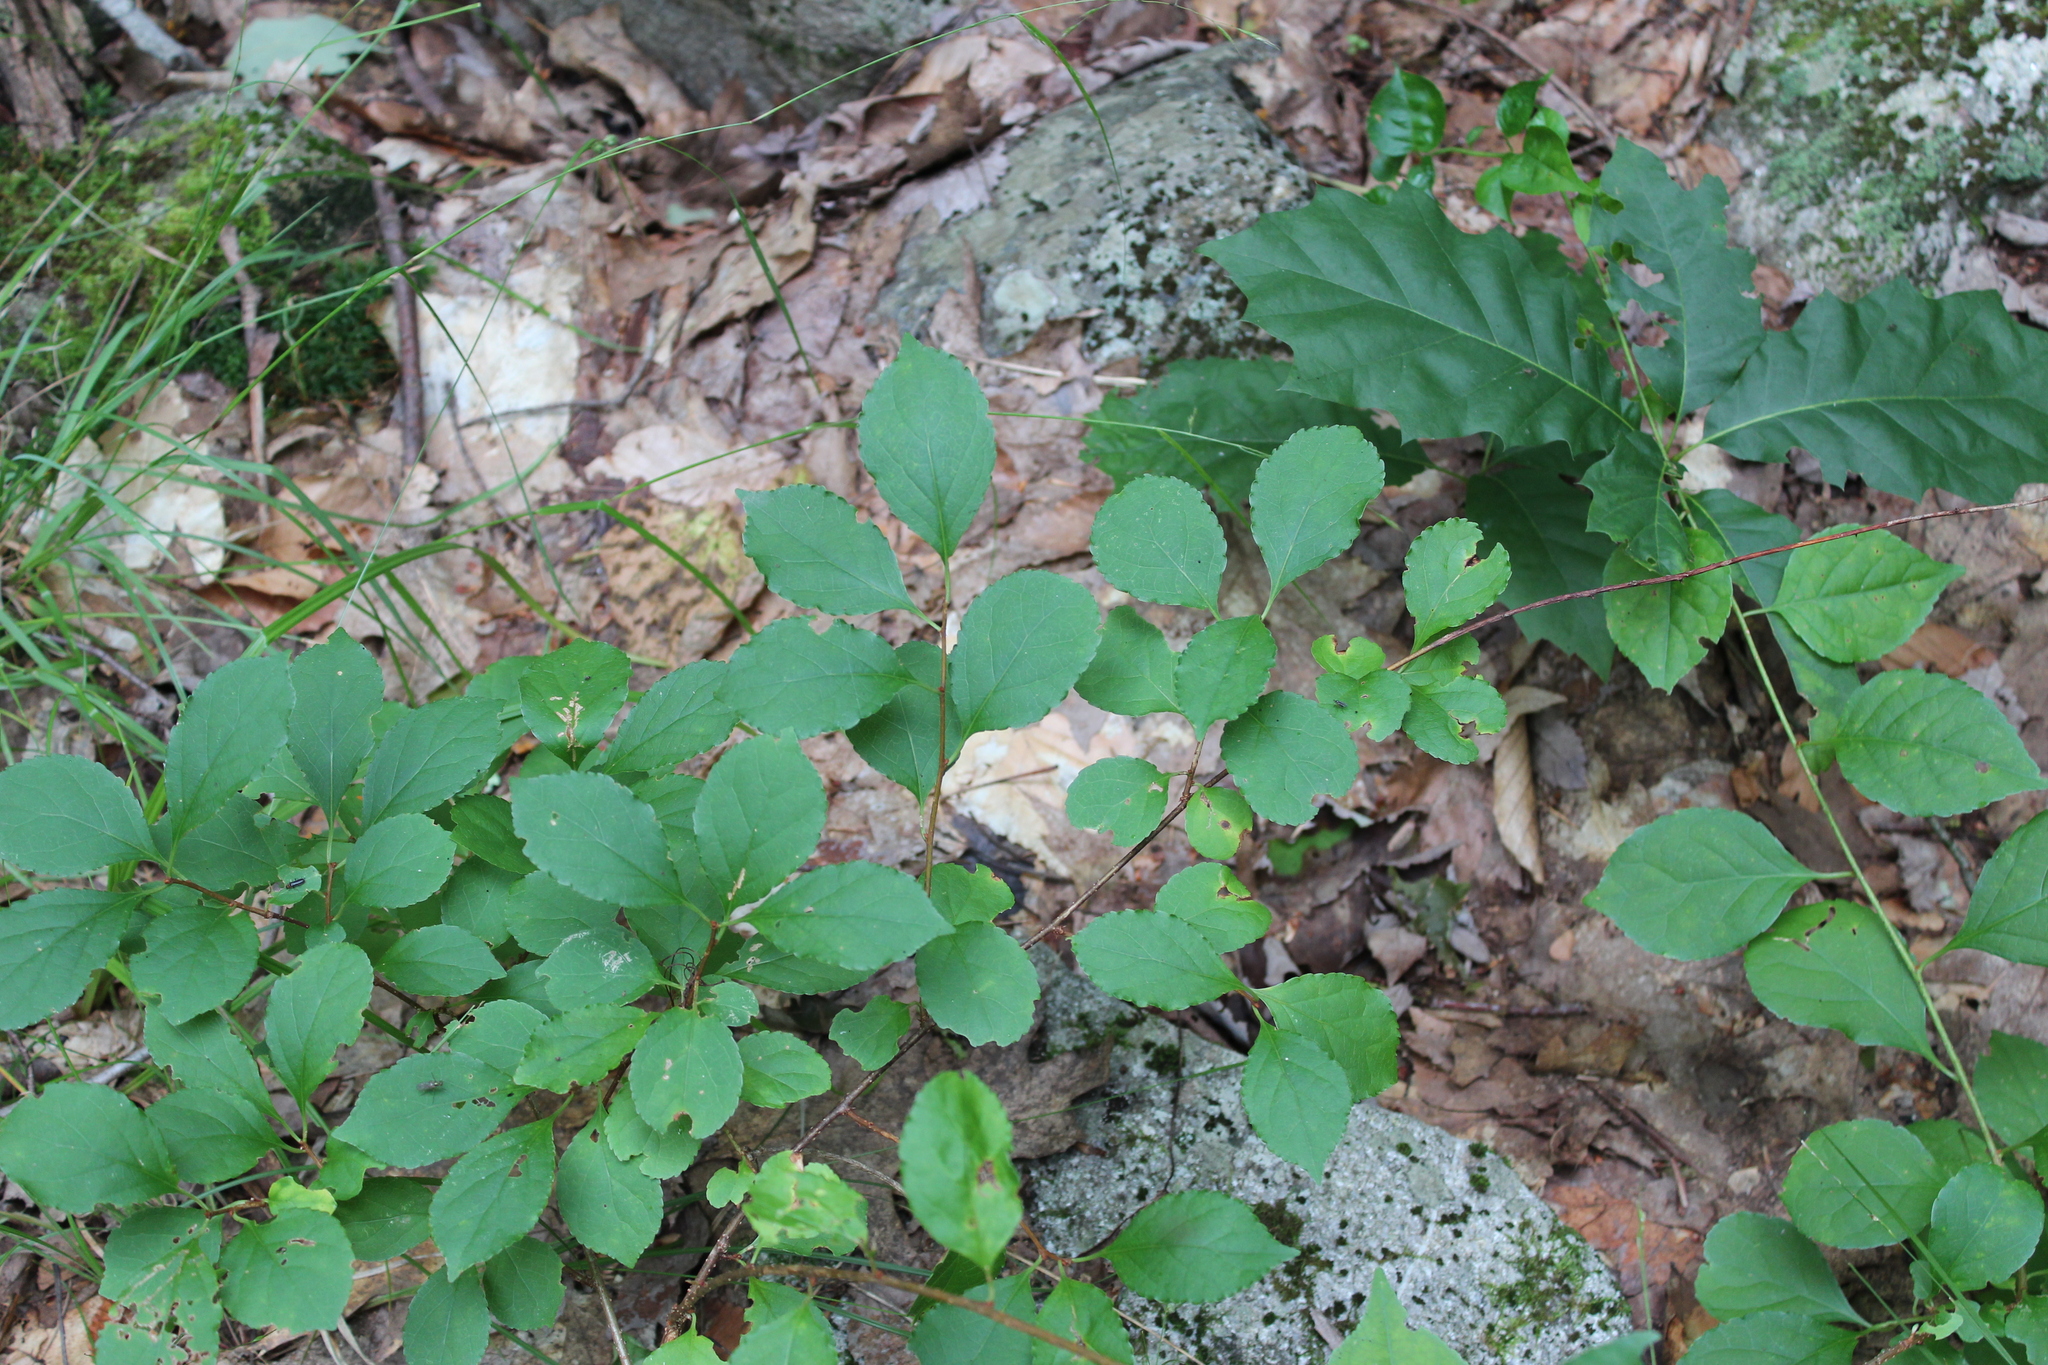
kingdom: Plantae
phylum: Tracheophyta
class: Magnoliopsida
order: Celastrales
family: Celastraceae
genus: Celastrus
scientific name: Celastrus orbiculatus
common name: Oriental bittersweet
